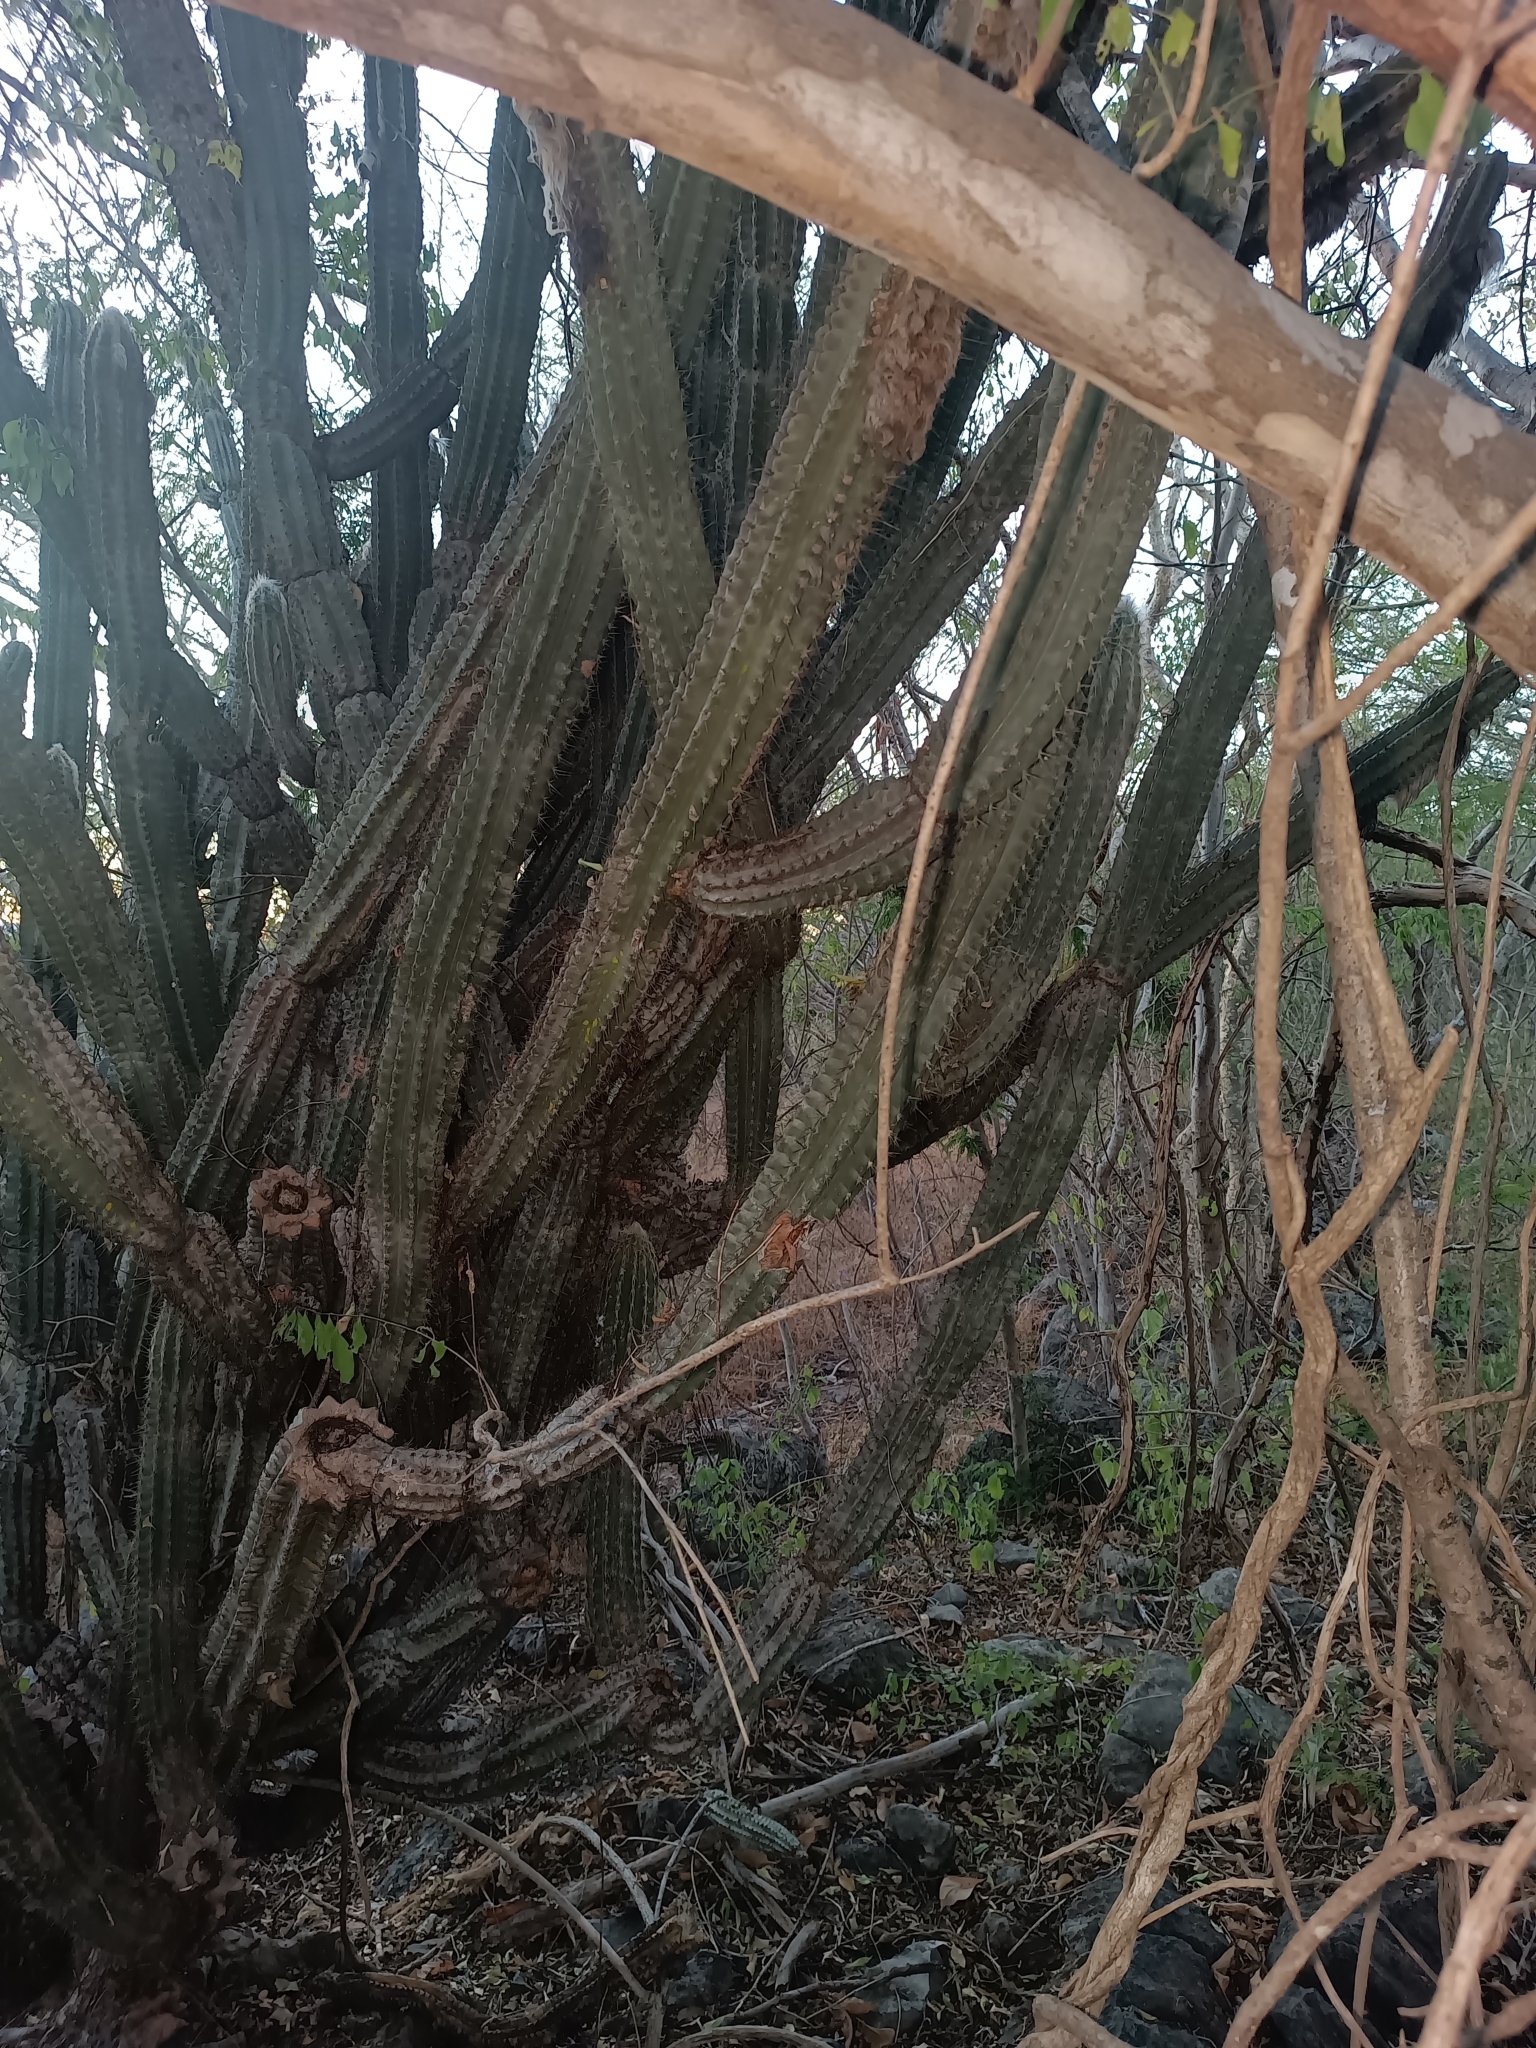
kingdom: Plantae
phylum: Tracheophyta
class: Magnoliopsida
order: Caryophyllales
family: Cactaceae
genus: Pilosocereus
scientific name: Pilosocereus purpusii
